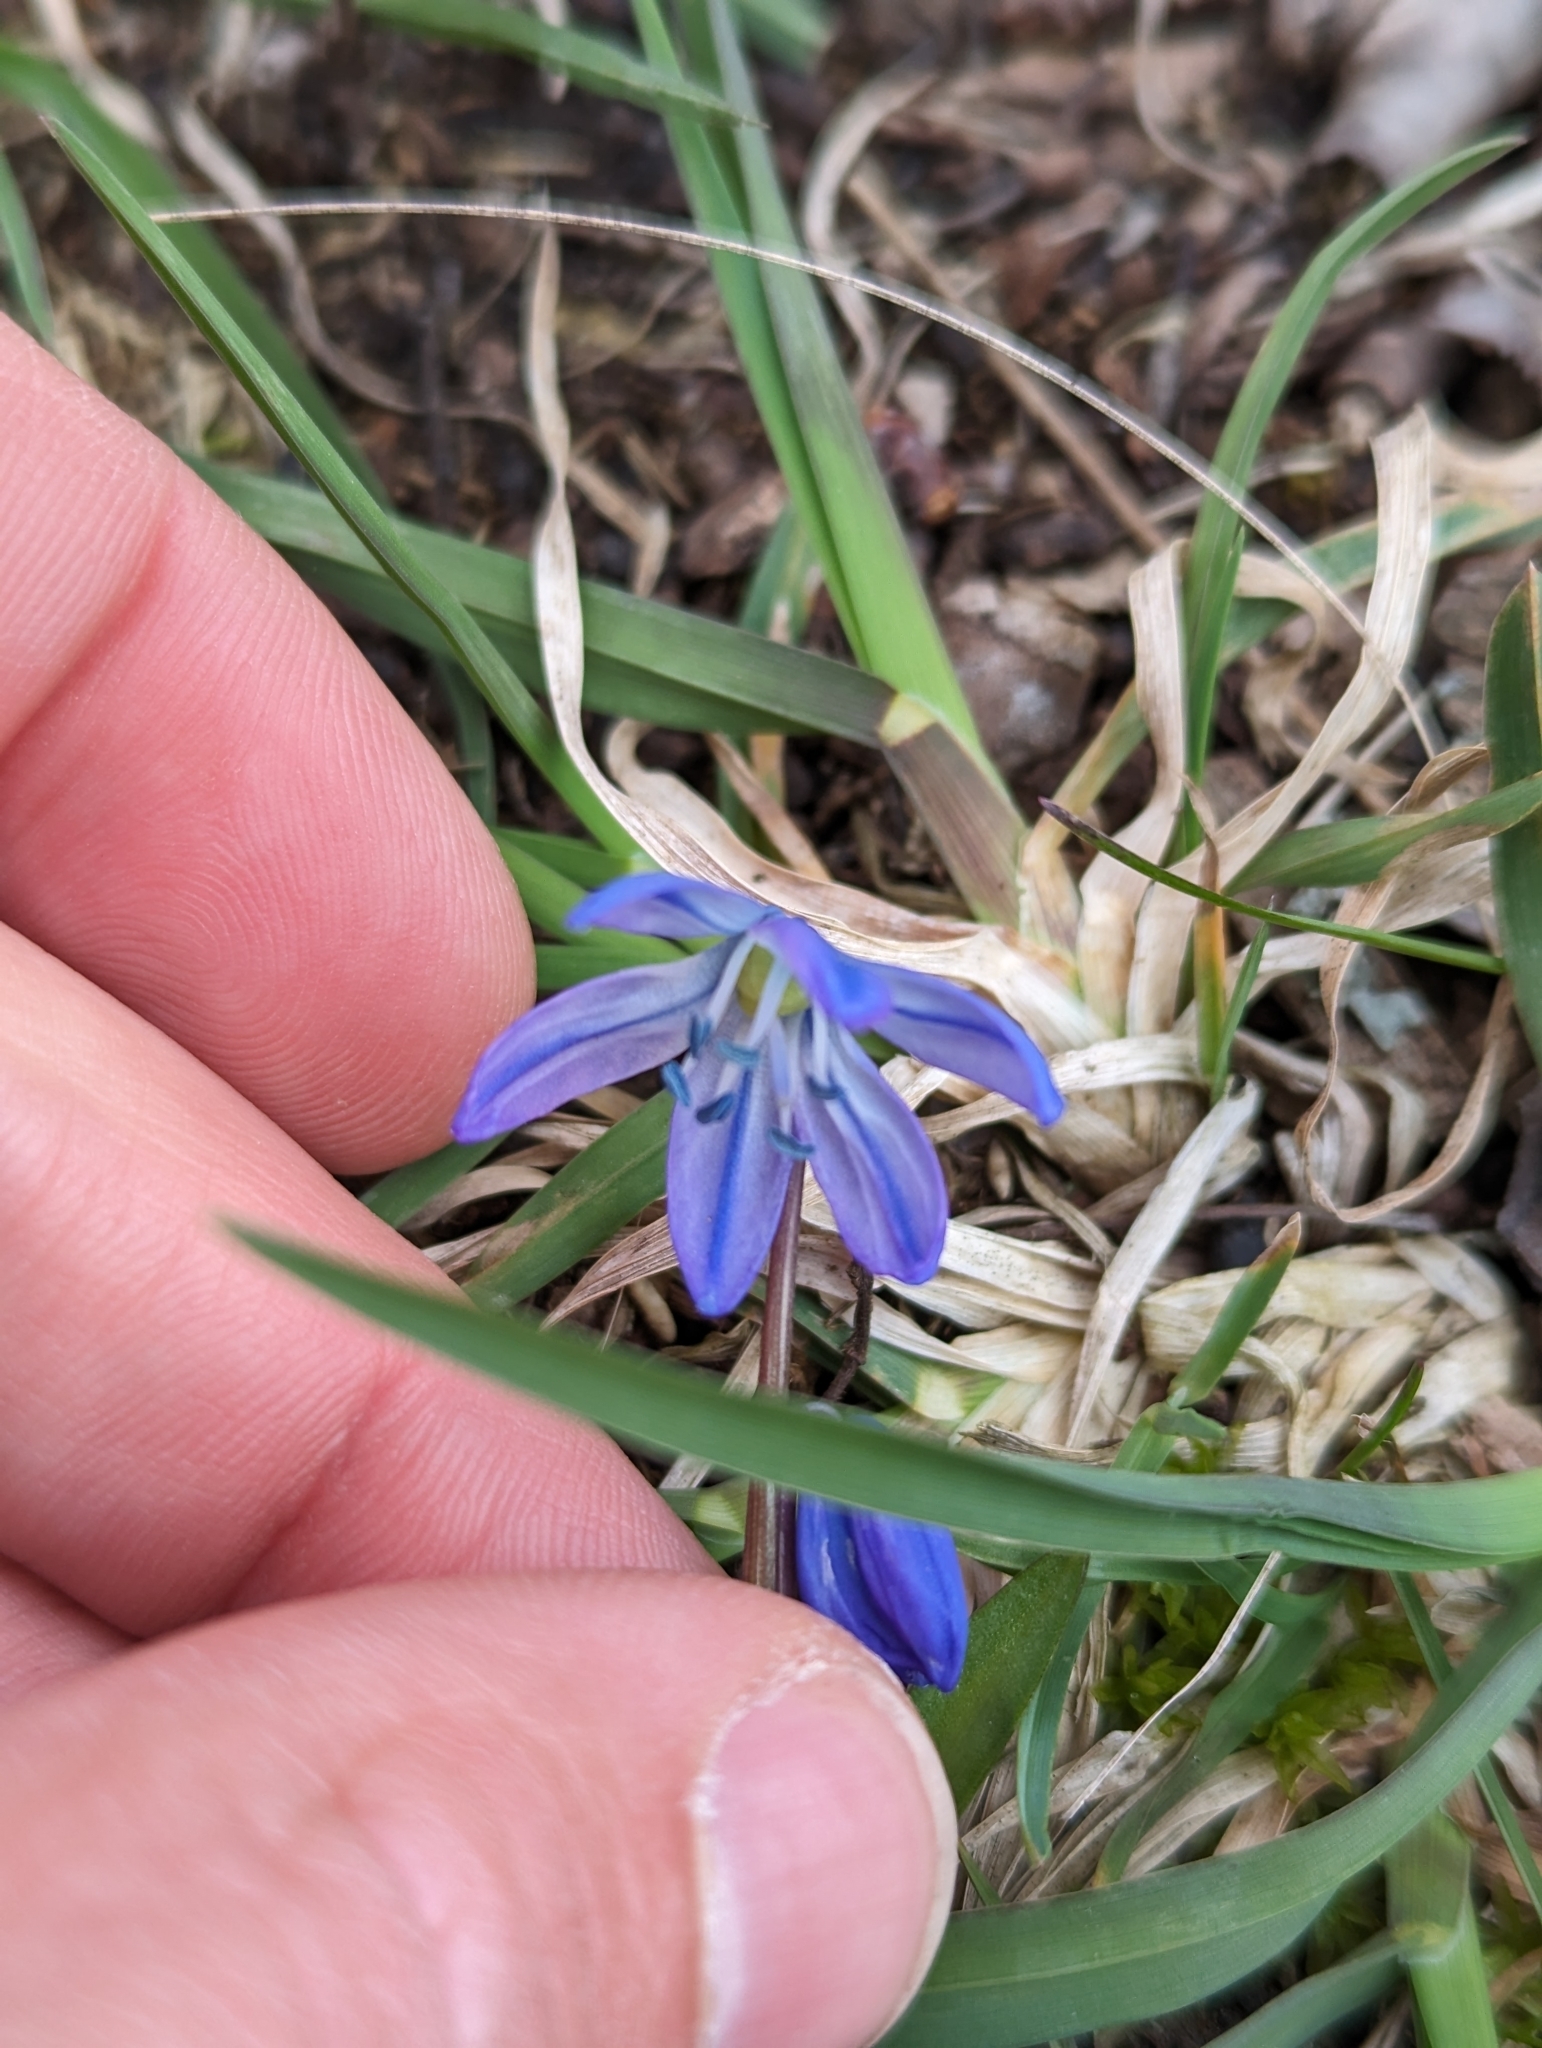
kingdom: Plantae
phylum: Tracheophyta
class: Liliopsida
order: Asparagales
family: Asparagaceae
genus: Scilla
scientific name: Scilla siberica
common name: Siberian squill
